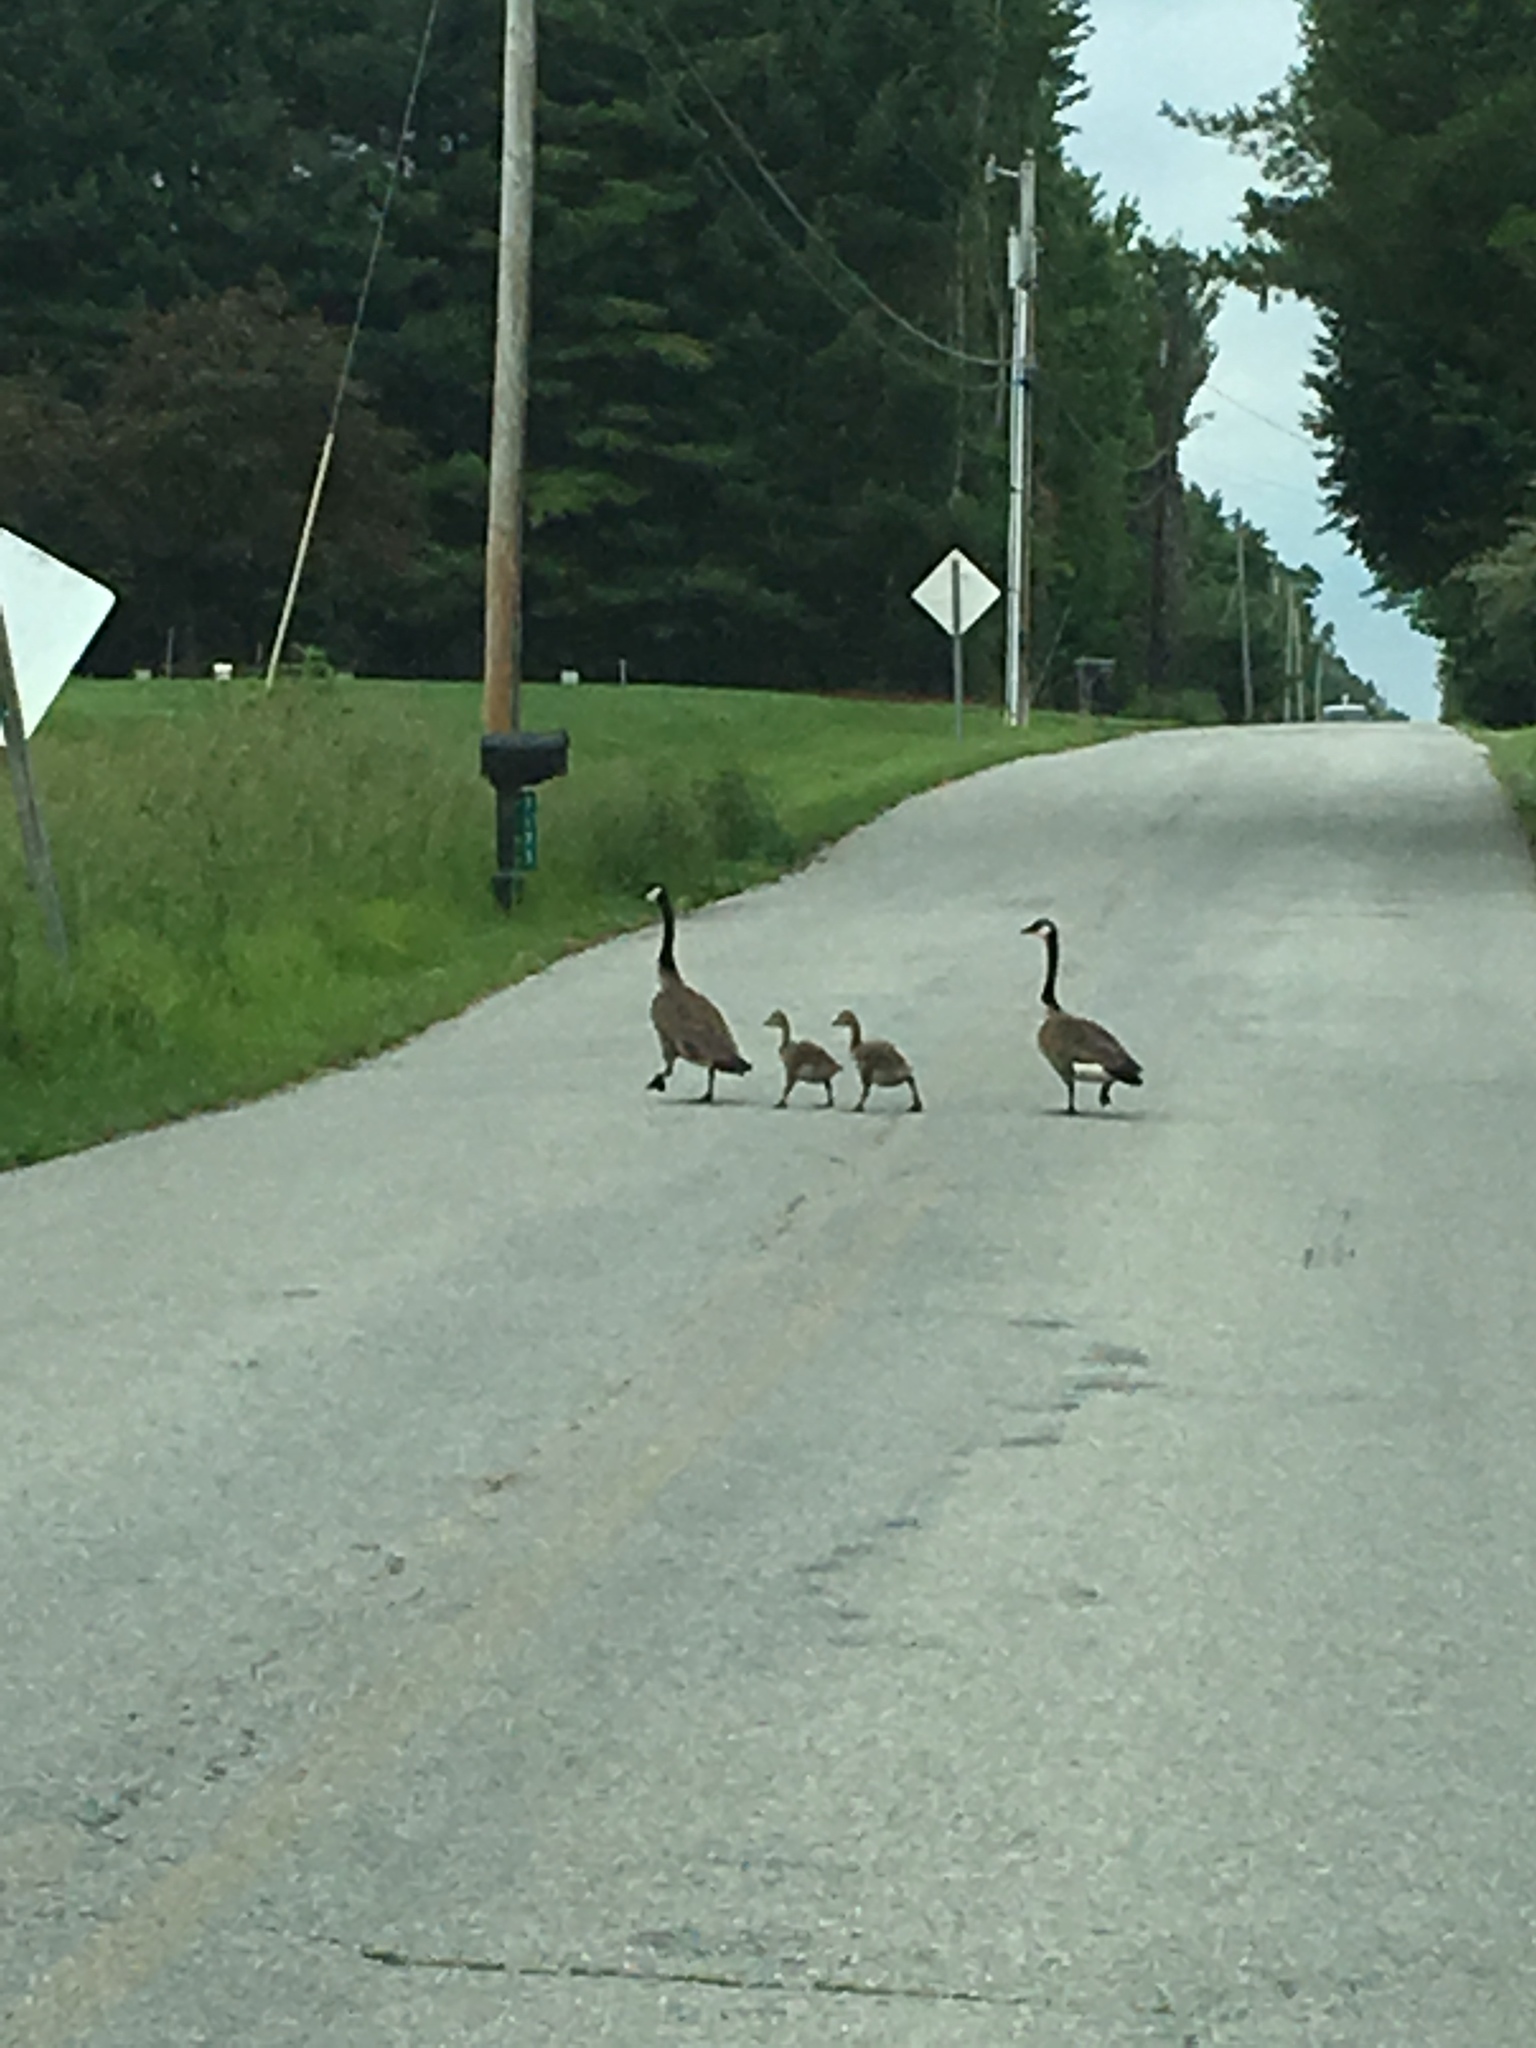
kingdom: Animalia
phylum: Chordata
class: Aves
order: Anseriformes
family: Anatidae
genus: Branta
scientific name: Branta canadensis
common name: Canada goose
